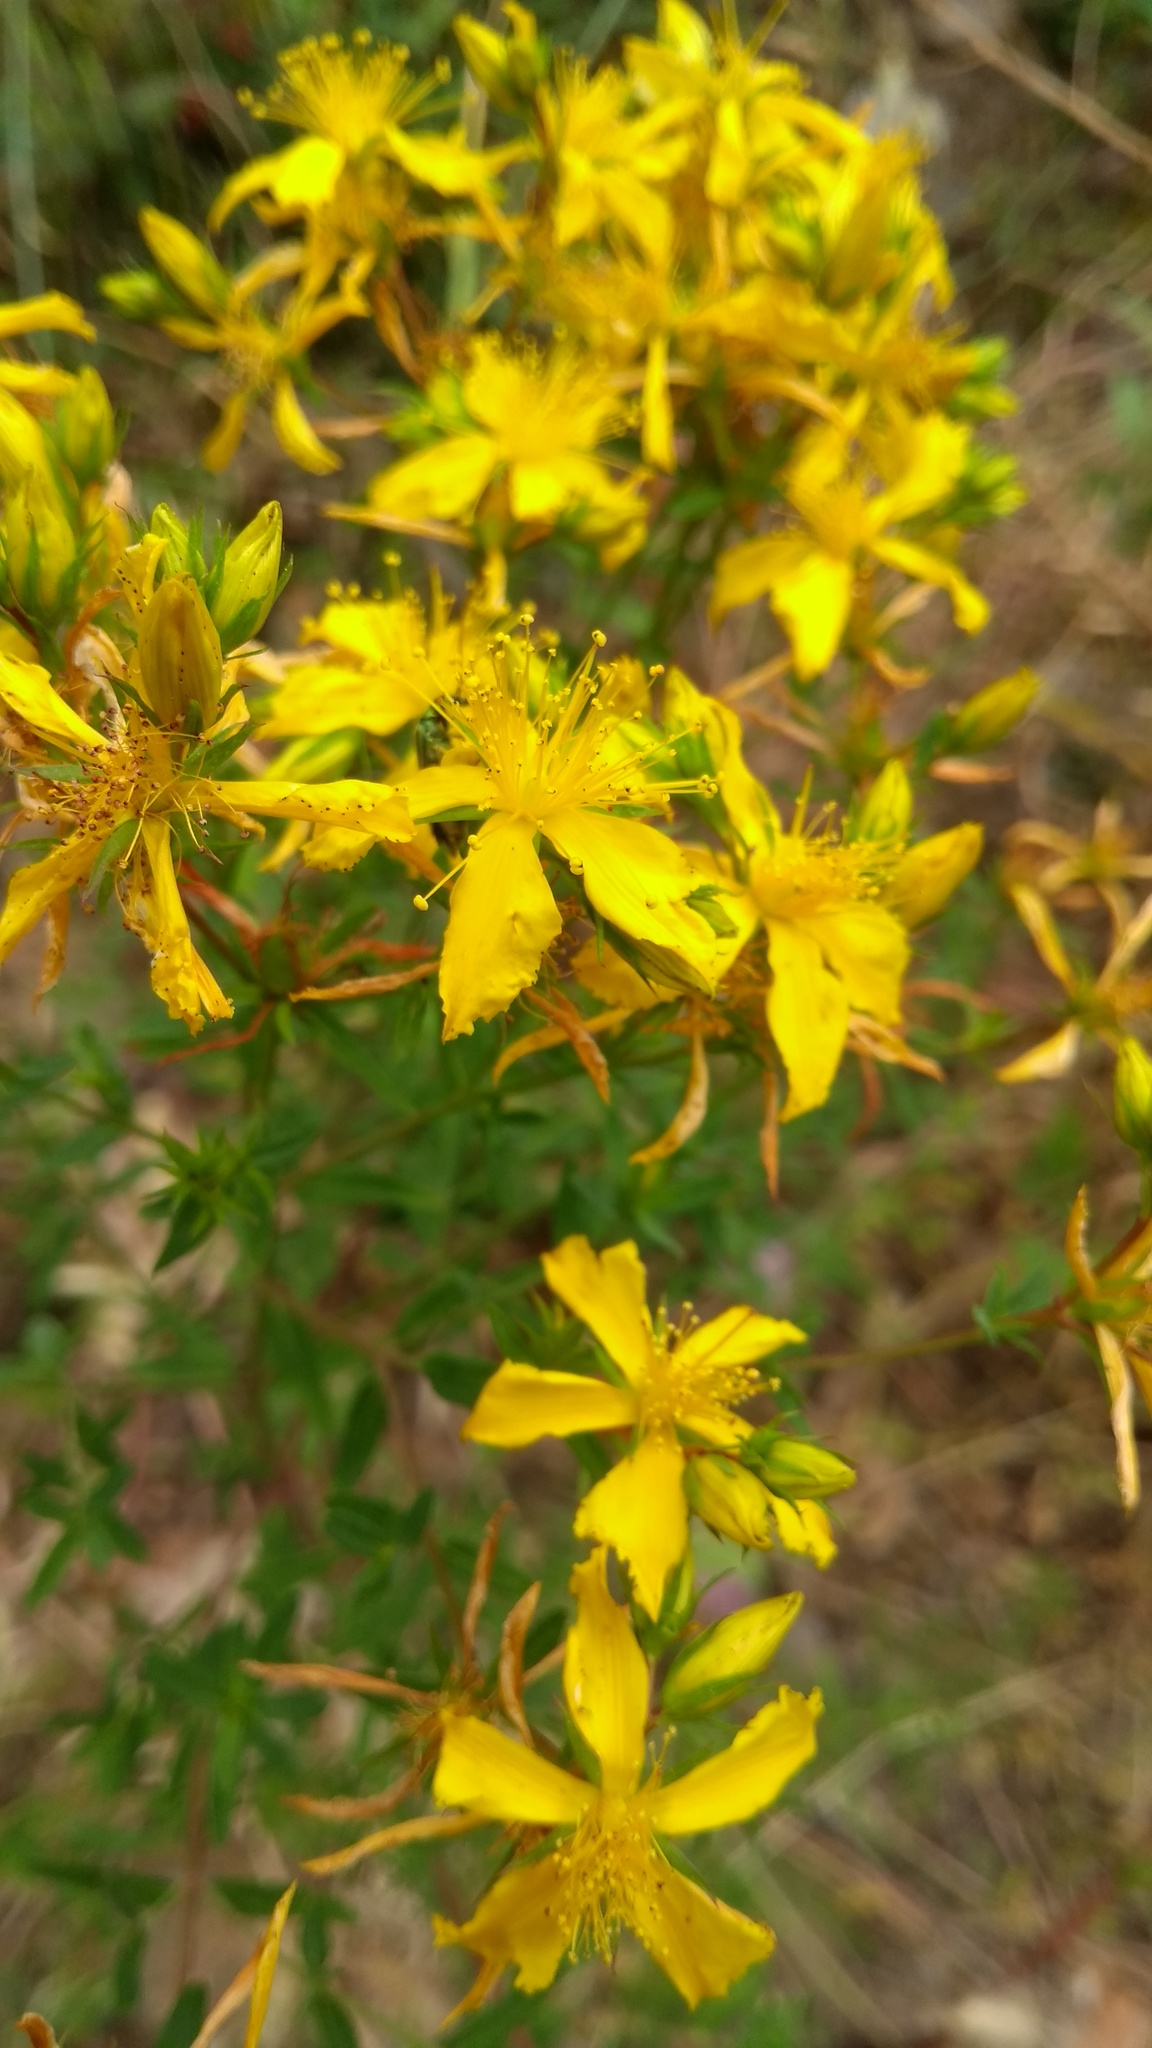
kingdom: Plantae
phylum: Tracheophyta
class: Magnoliopsida
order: Malpighiales
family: Hypericaceae
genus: Hypericum
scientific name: Hypericum perforatum
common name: Common st. johnswort
